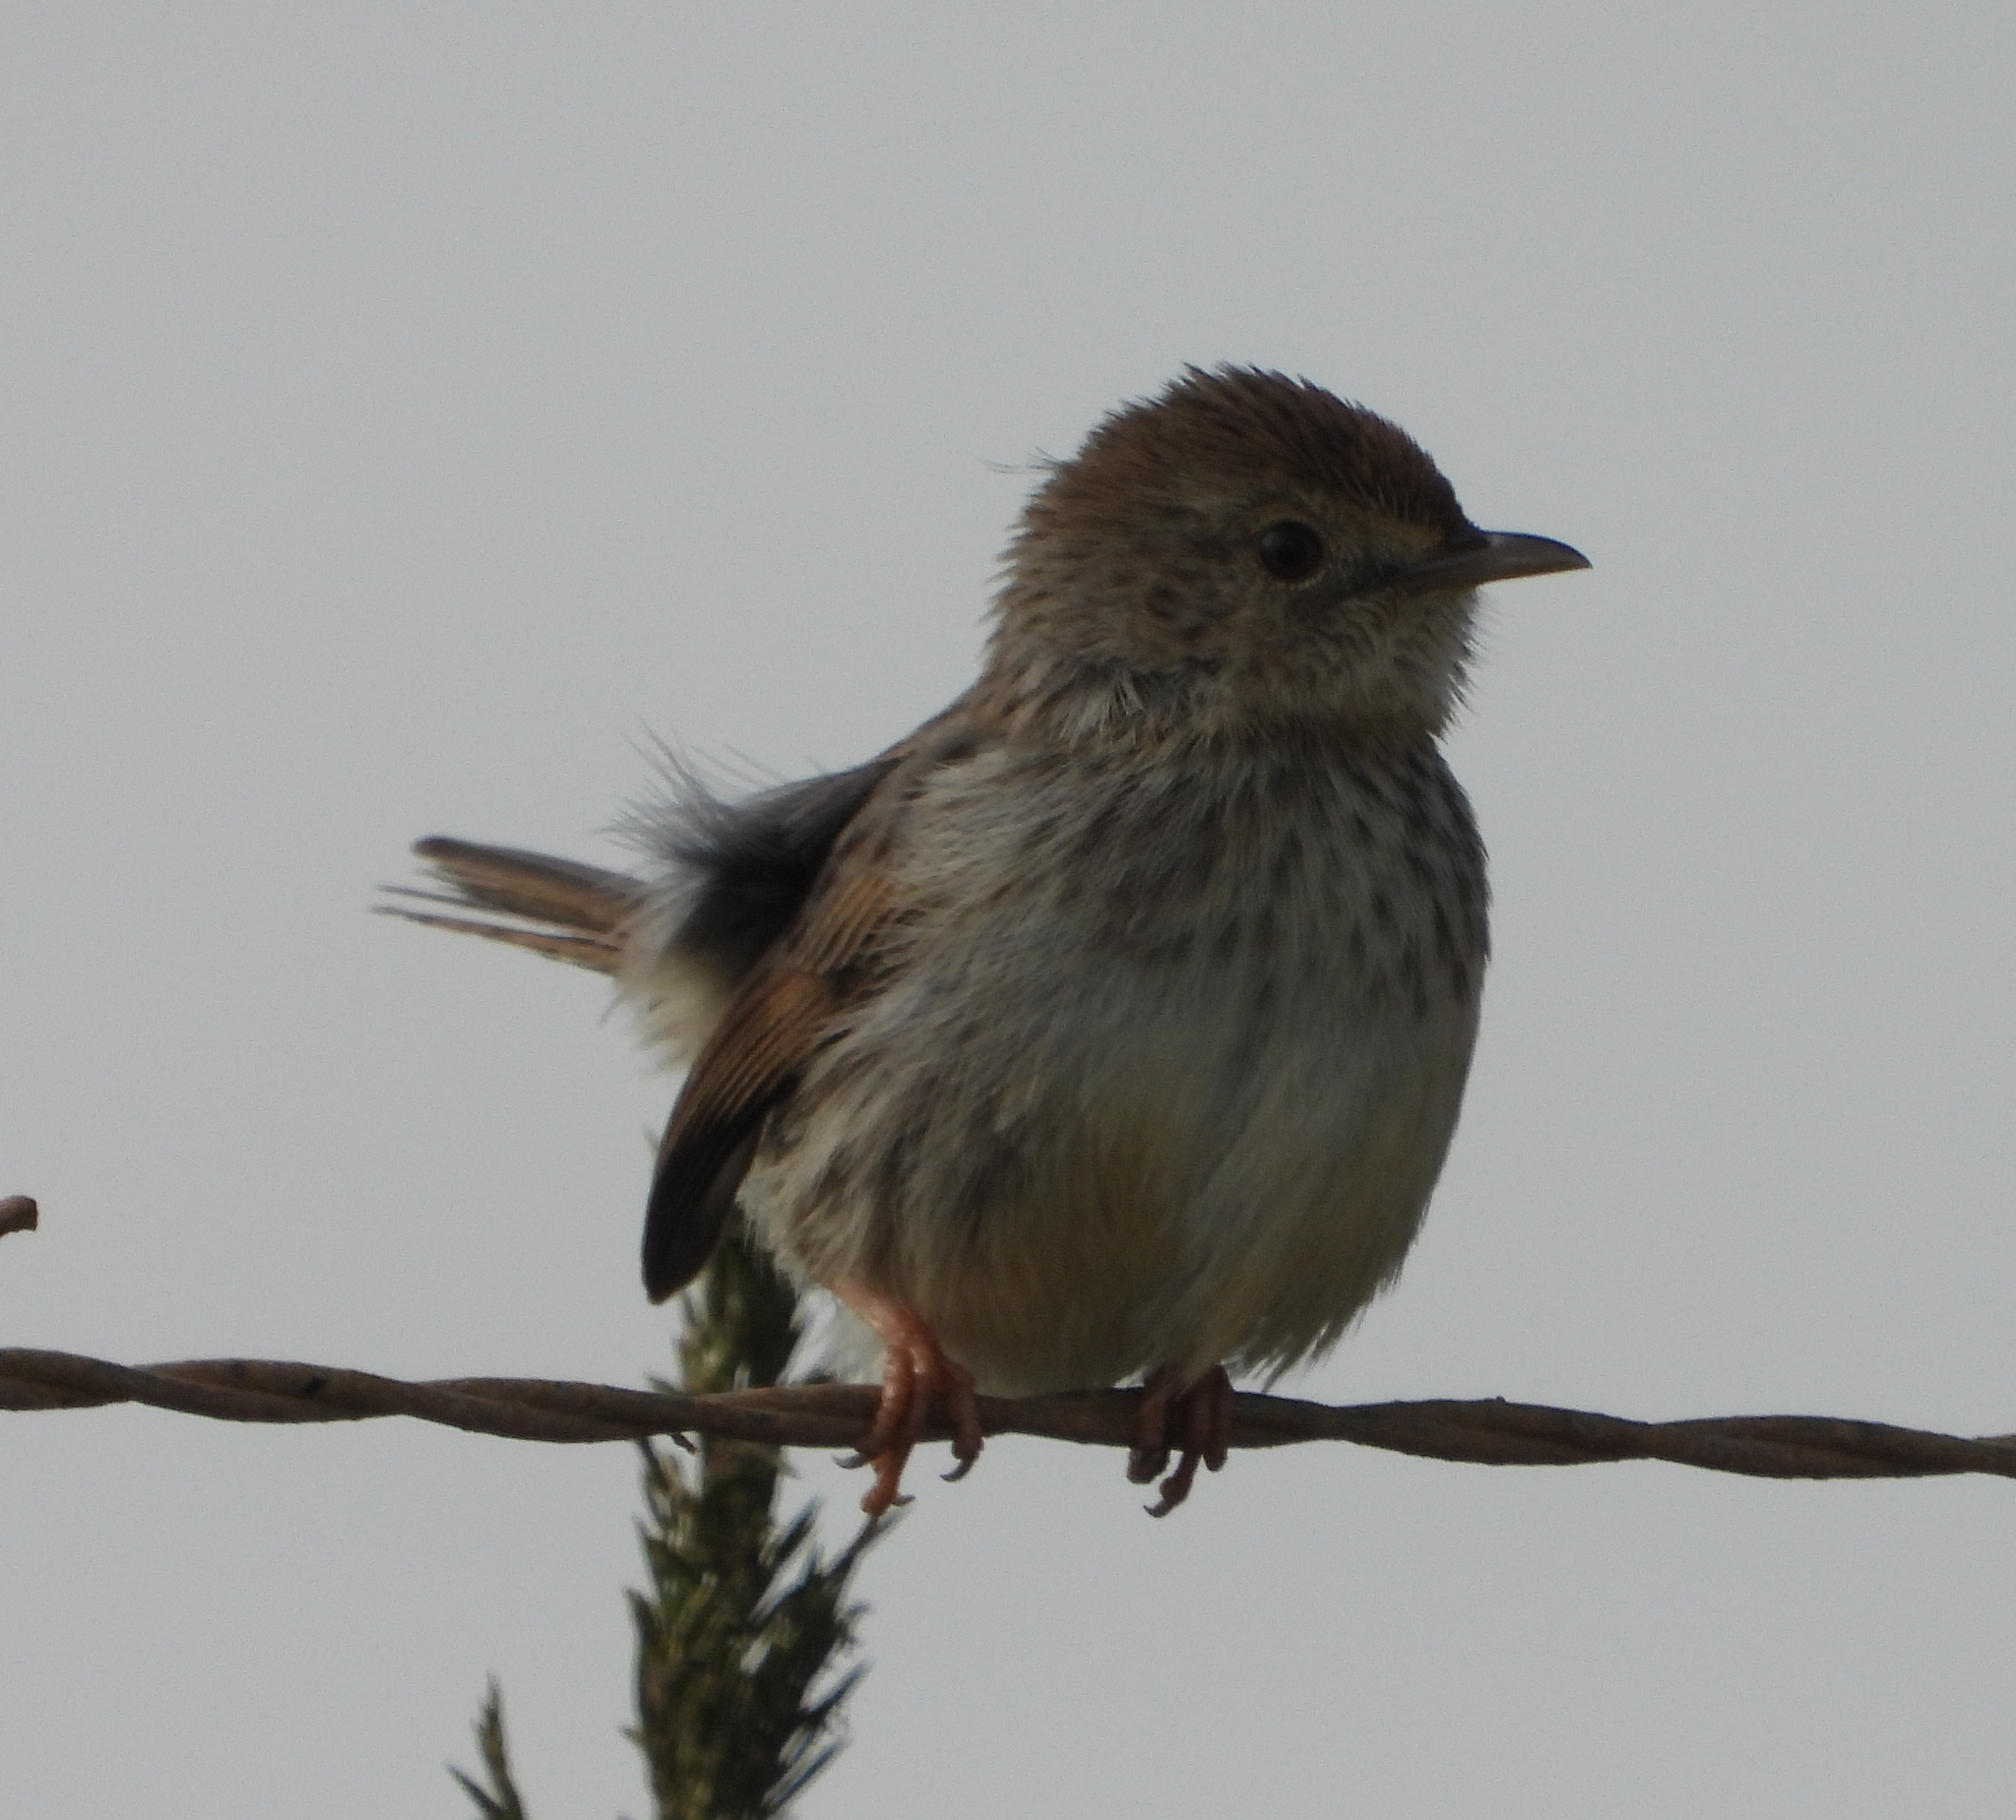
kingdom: Animalia
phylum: Chordata
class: Aves
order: Passeriformes
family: Cisticolidae
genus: Cisticola
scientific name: Cisticola subruficapilla
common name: Grey-backed cisticola
